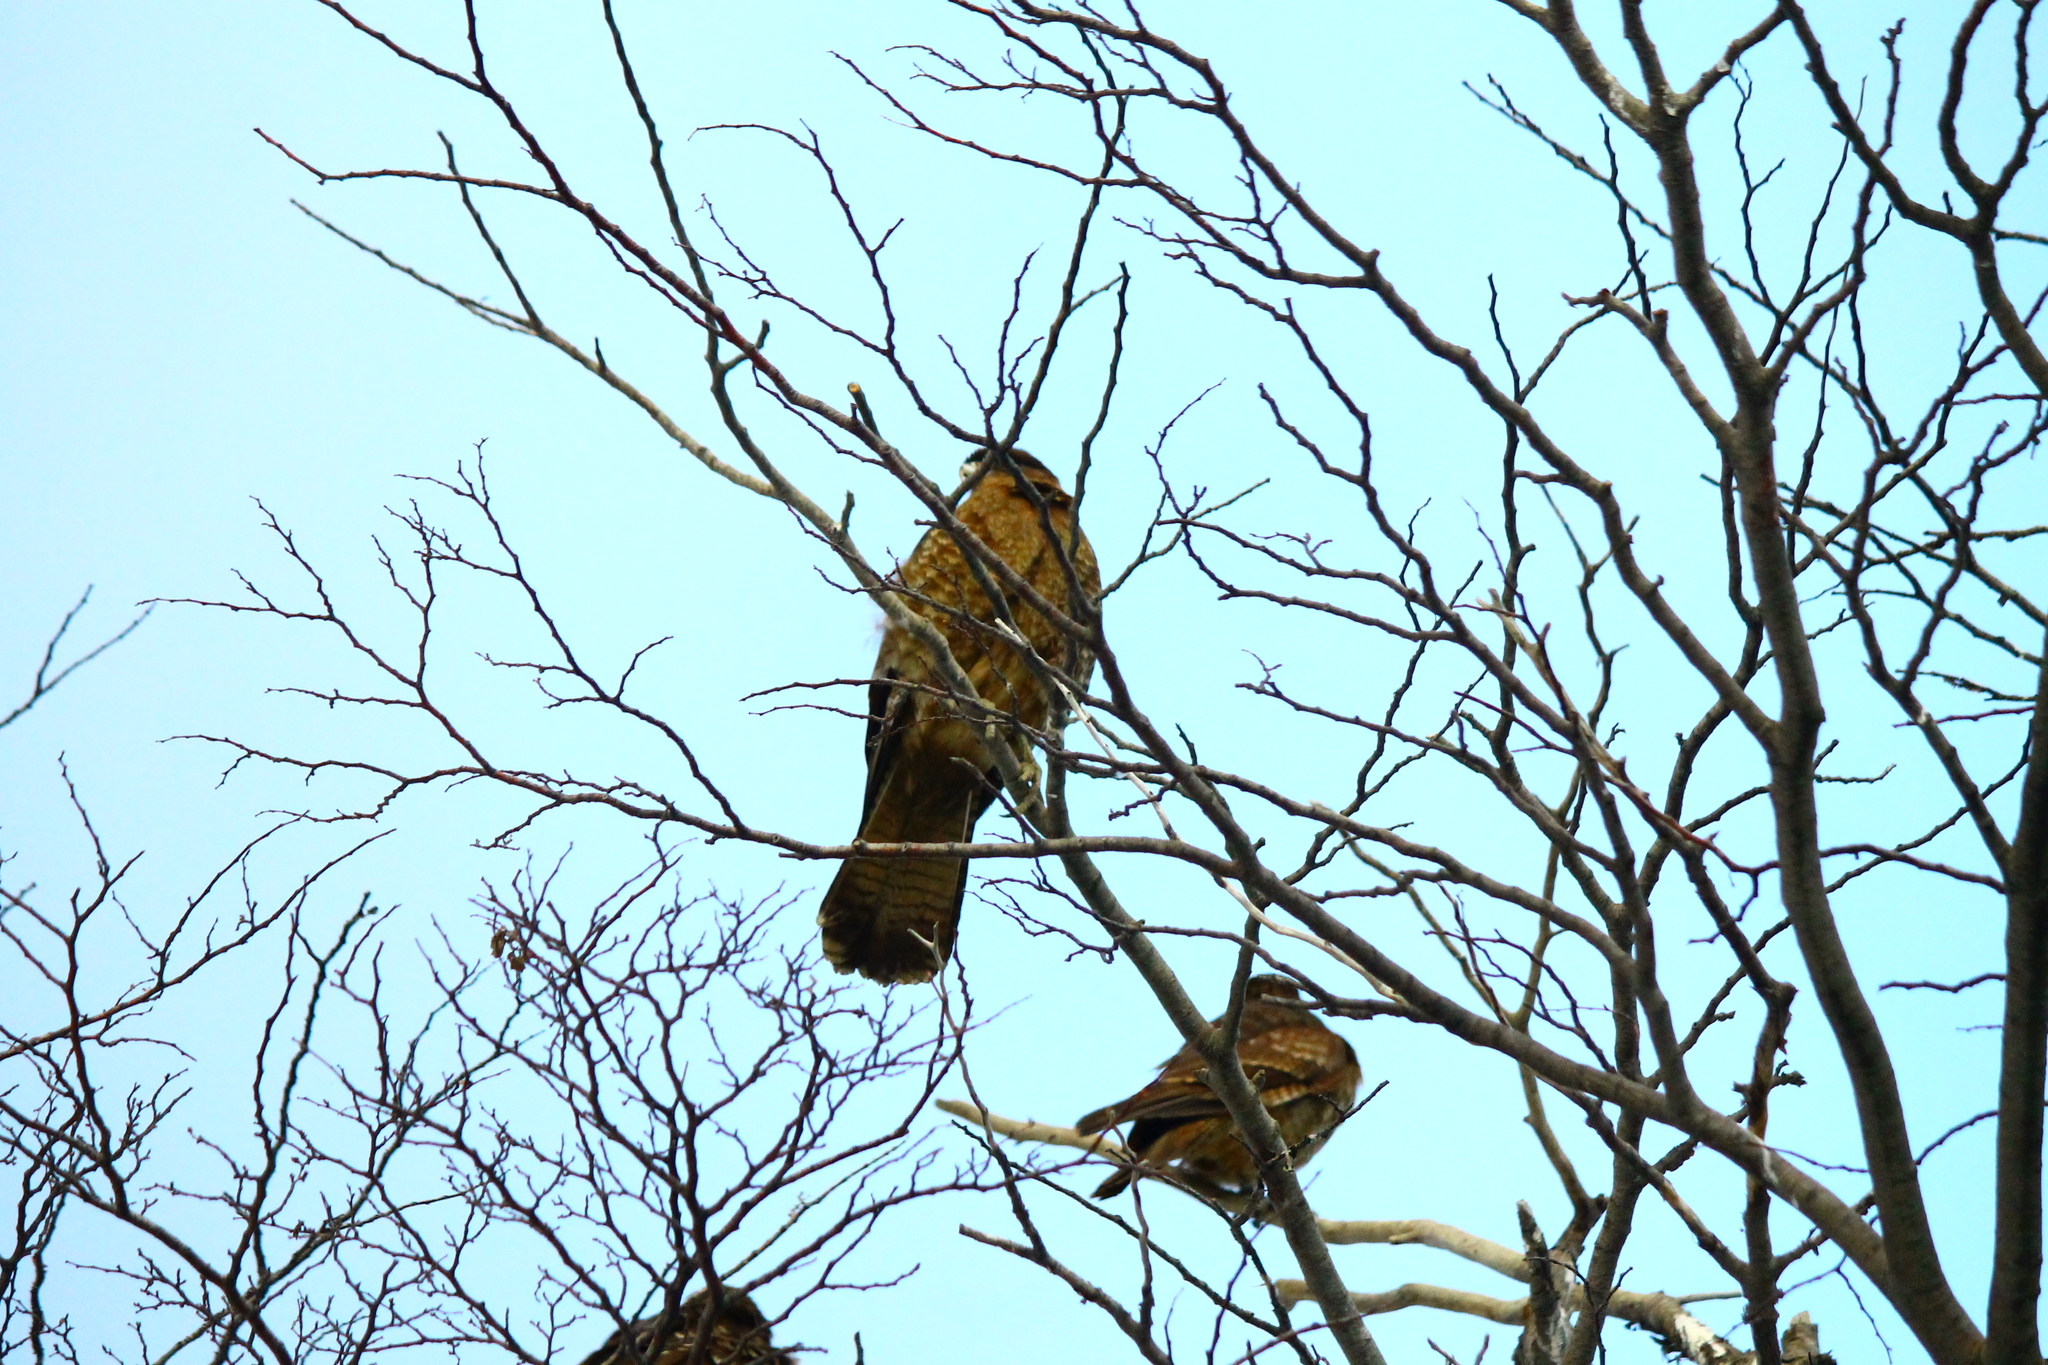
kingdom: Animalia
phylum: Chordata
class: Aves
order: Falconiformes
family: Falconidae
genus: Daptrius
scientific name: Daptrius
